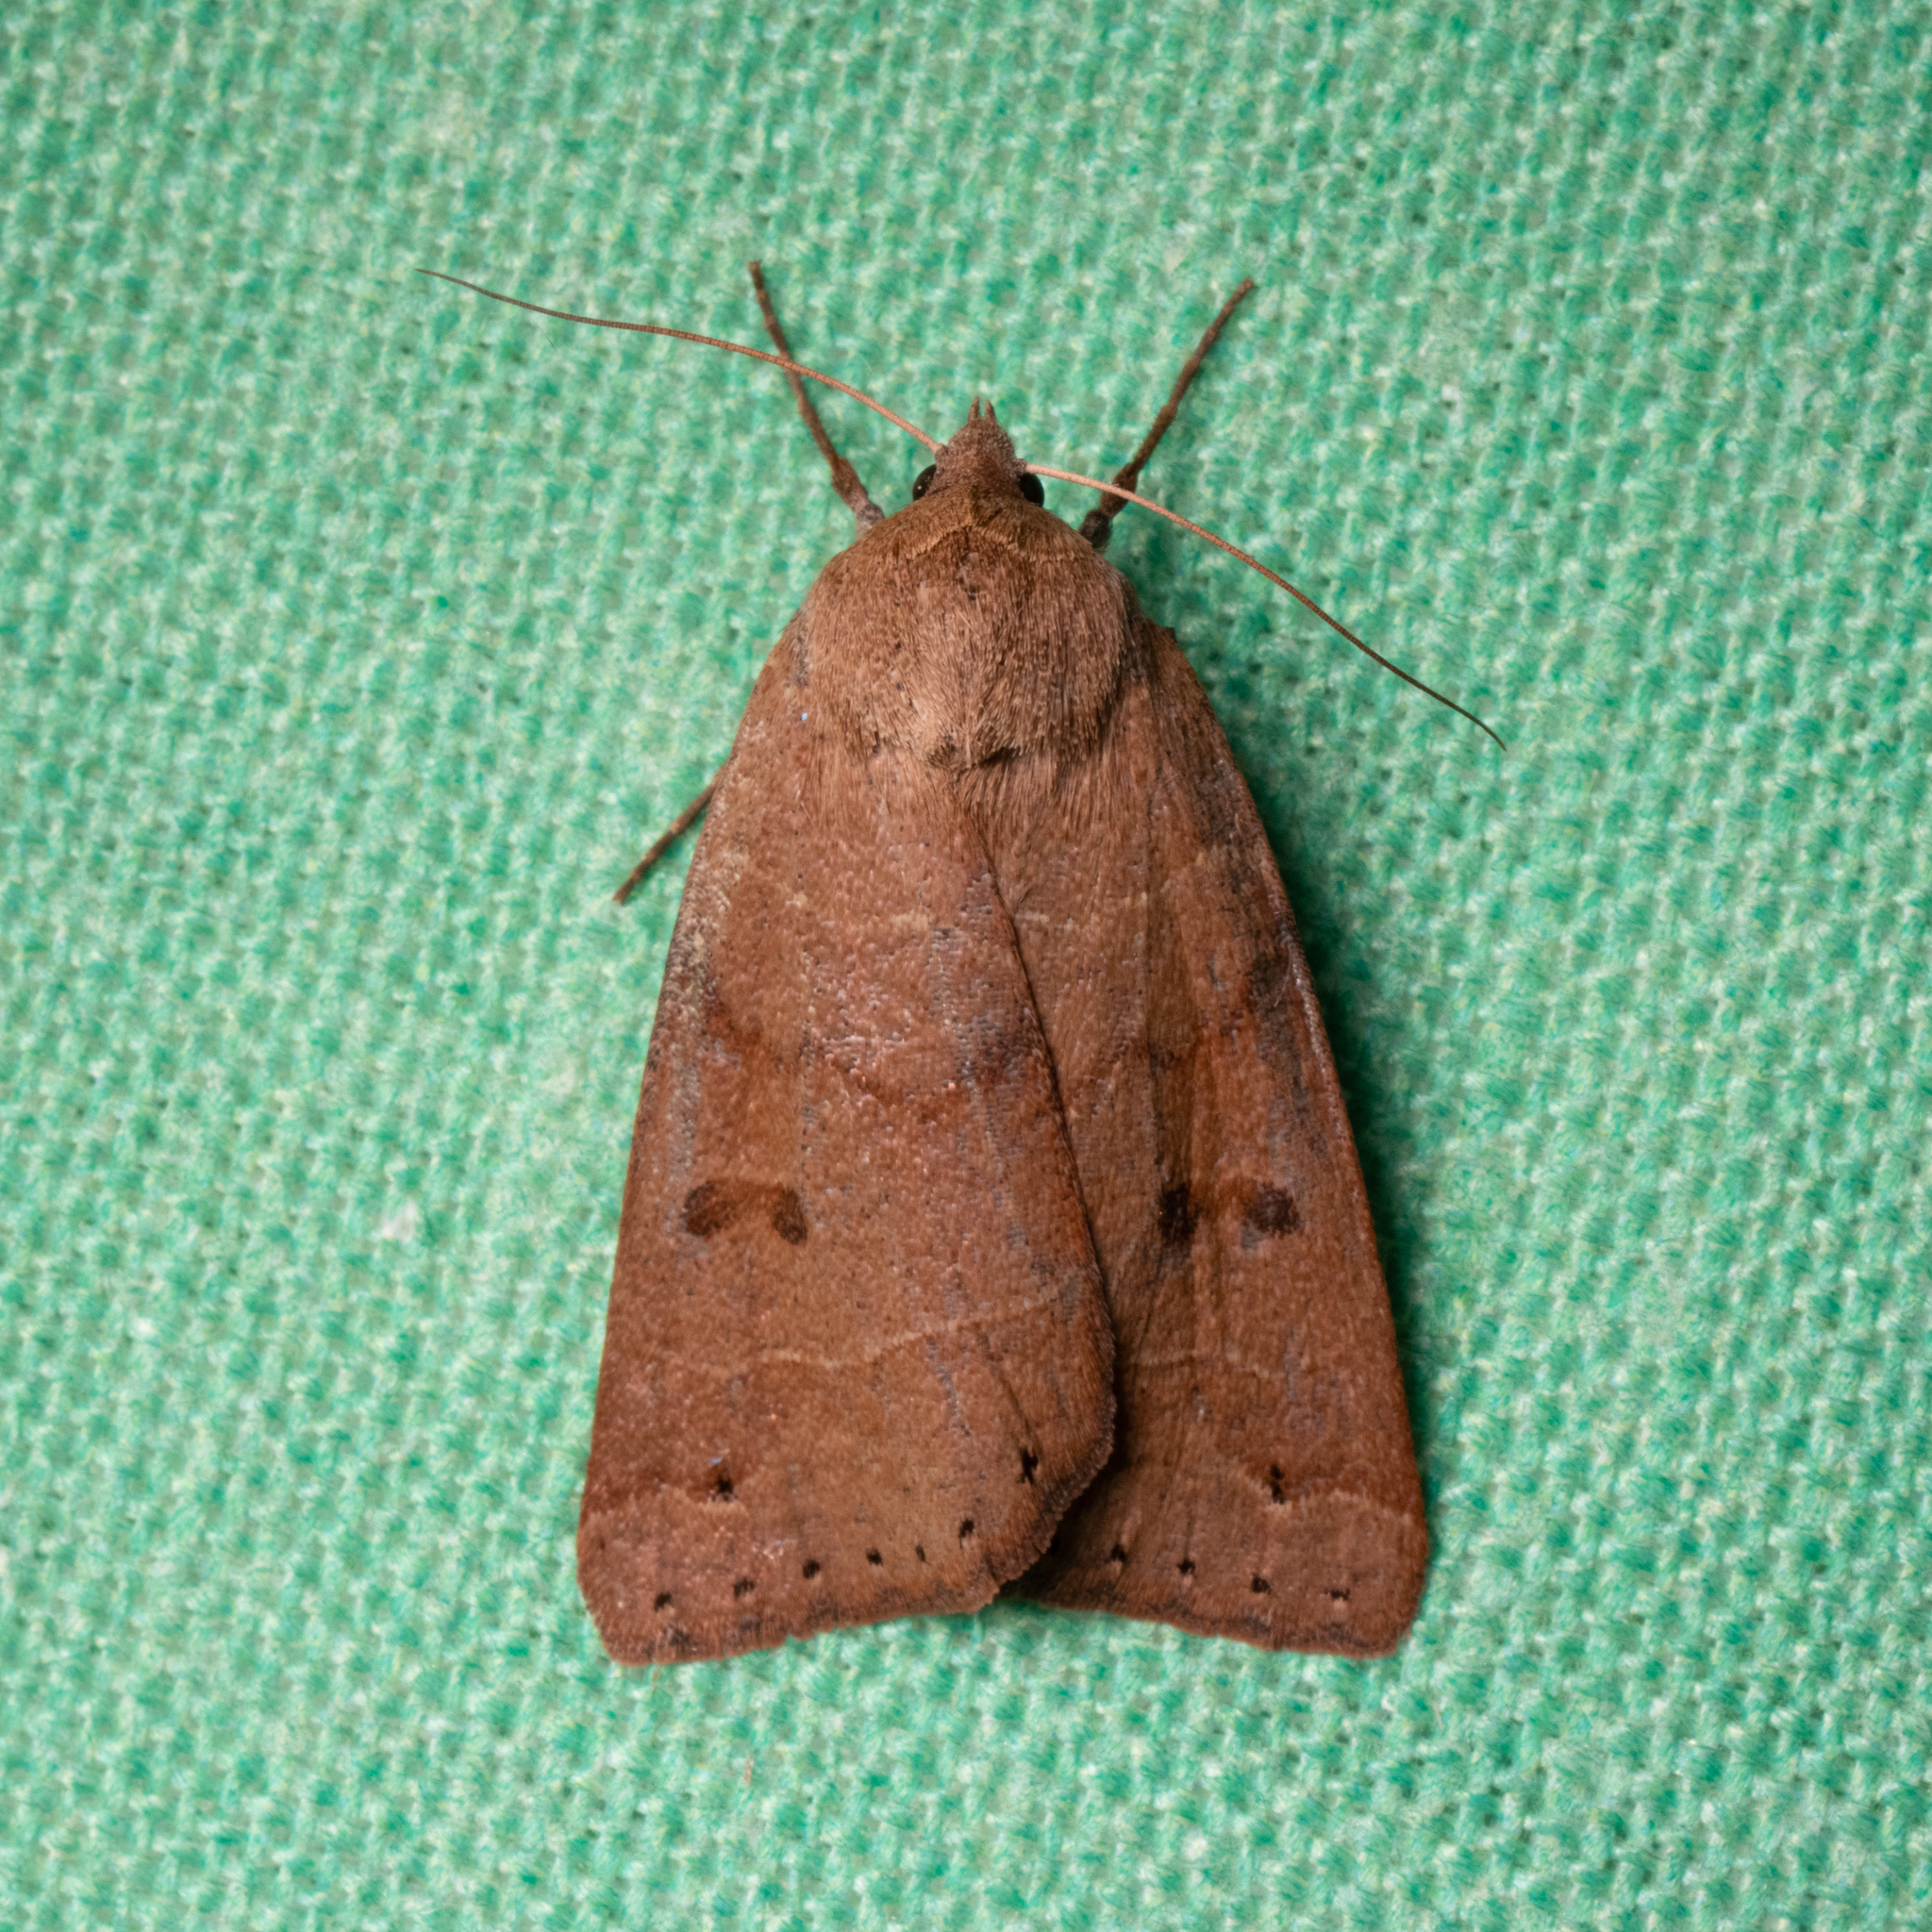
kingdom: Animalia
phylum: Arthropoda
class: Insecta
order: Lepidoptera
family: Erebidae
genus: Phoberia
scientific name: Phoberia atomaris
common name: Common oak moth
